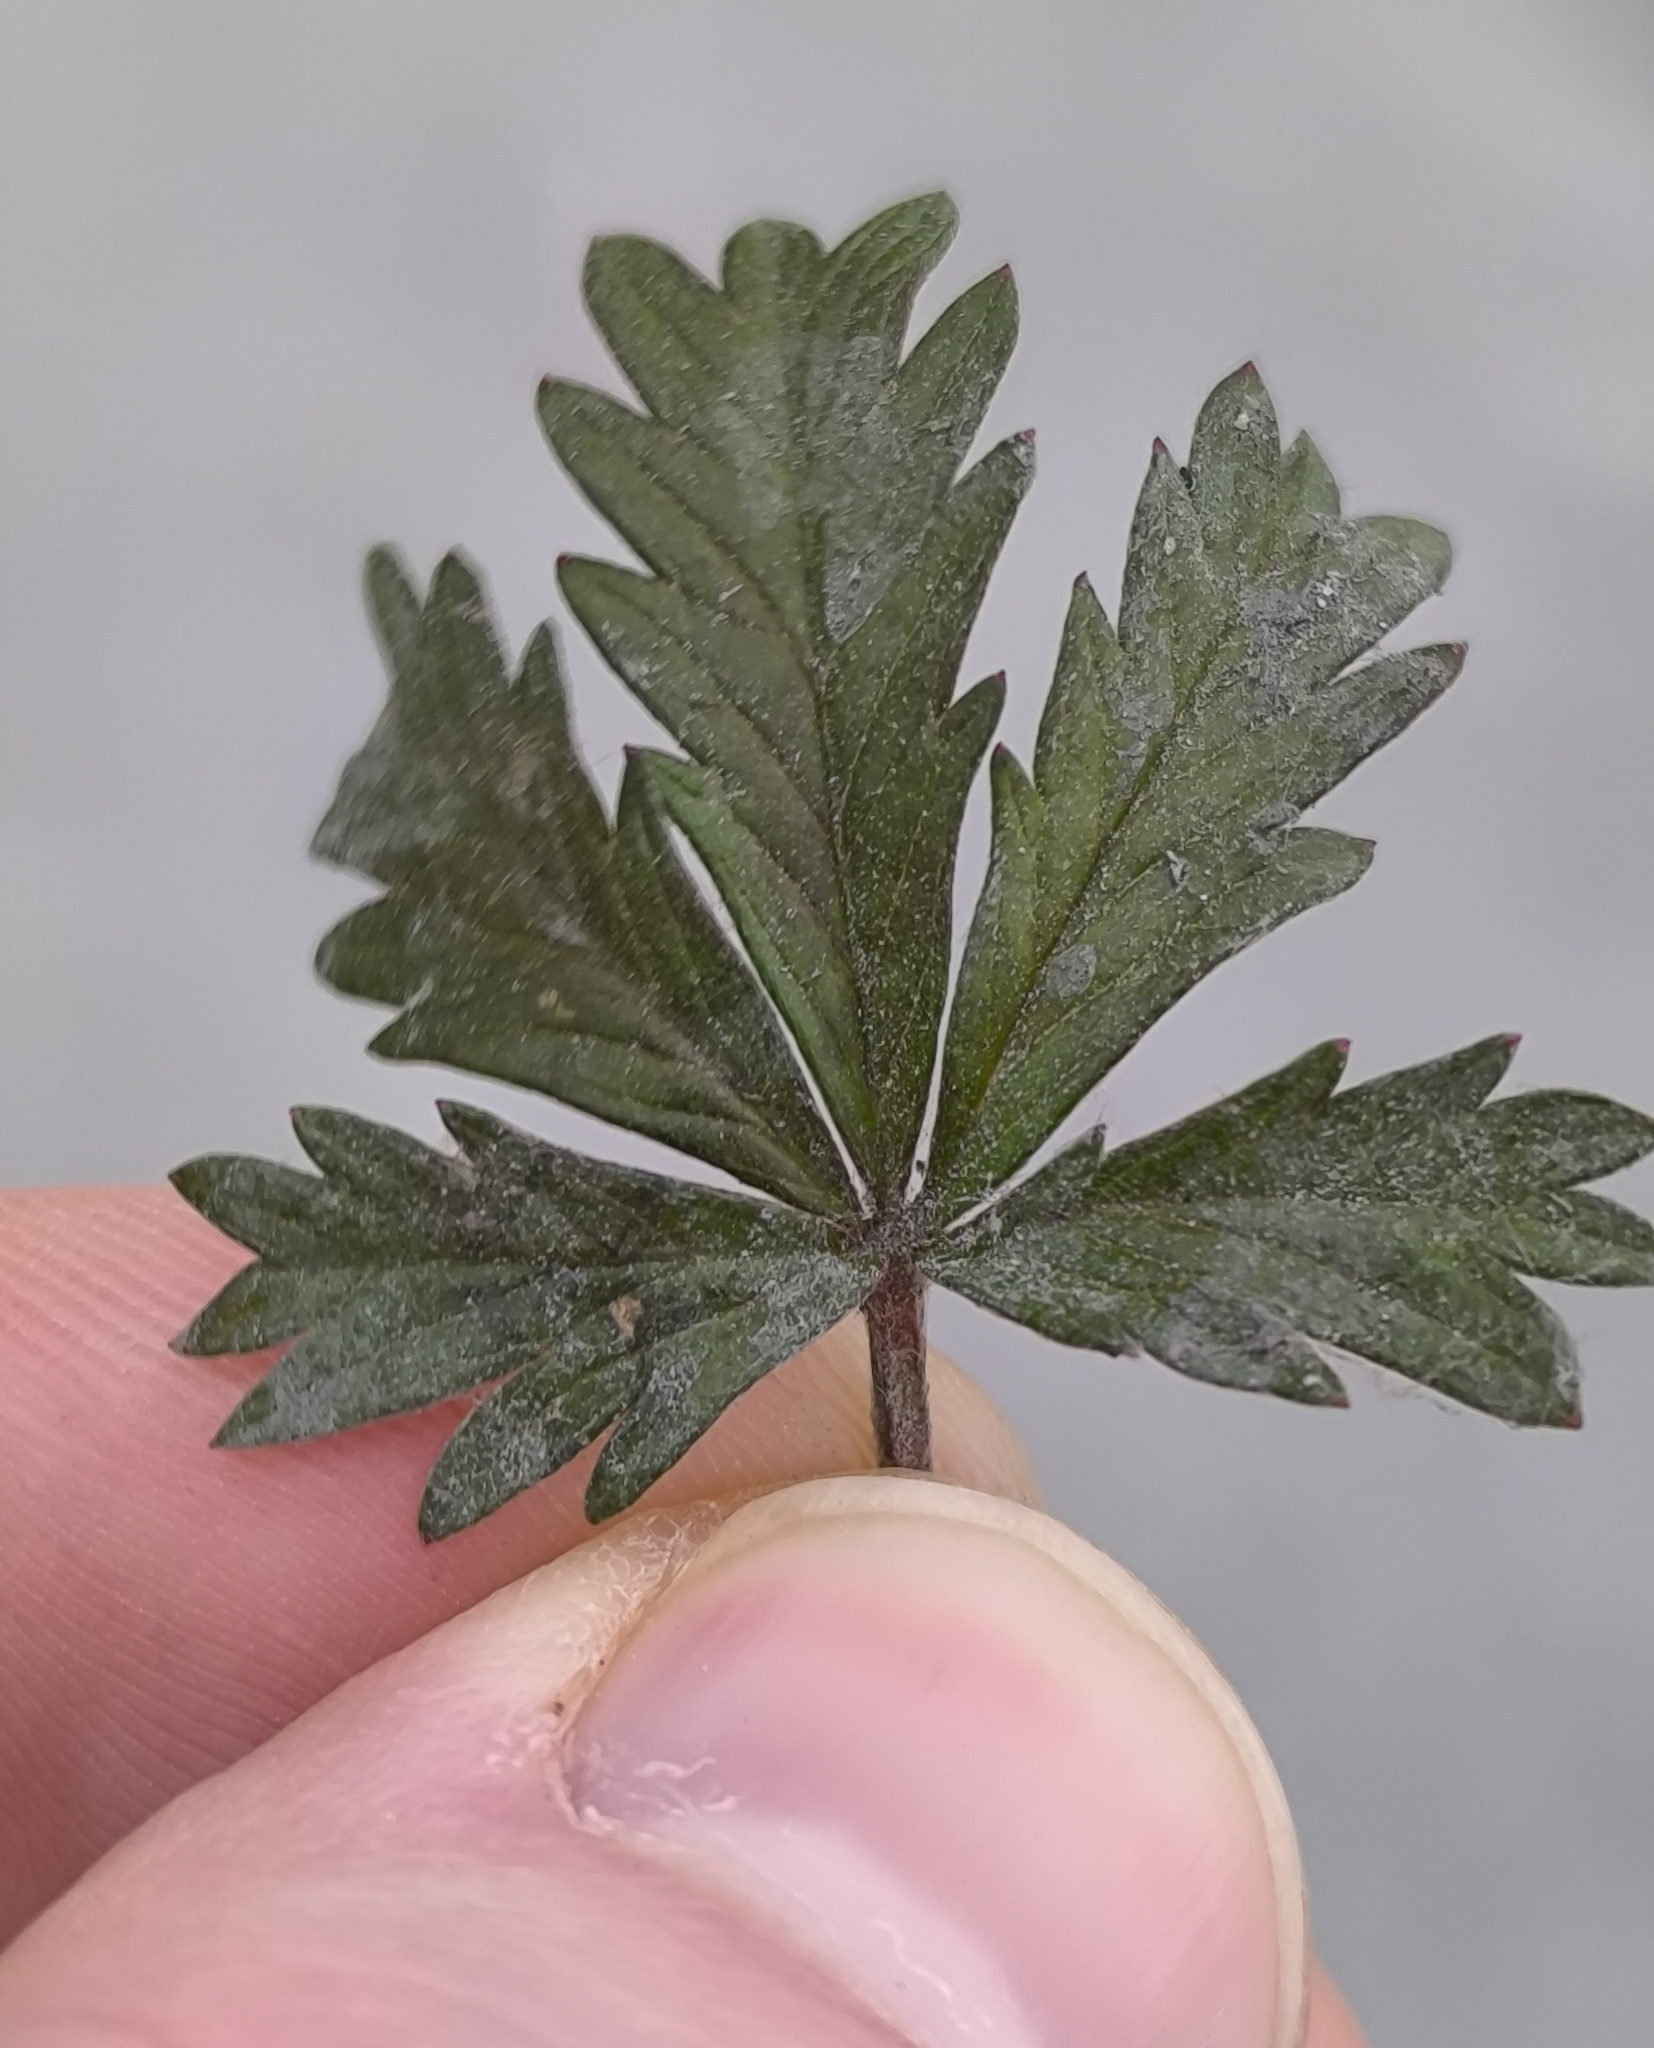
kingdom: Plantae
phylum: Tracheophyta
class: Magnoliopsida
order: Rosales
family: Rosaceae
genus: Potentilla
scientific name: Potentilla argentea
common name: Hoary cinquefoil
